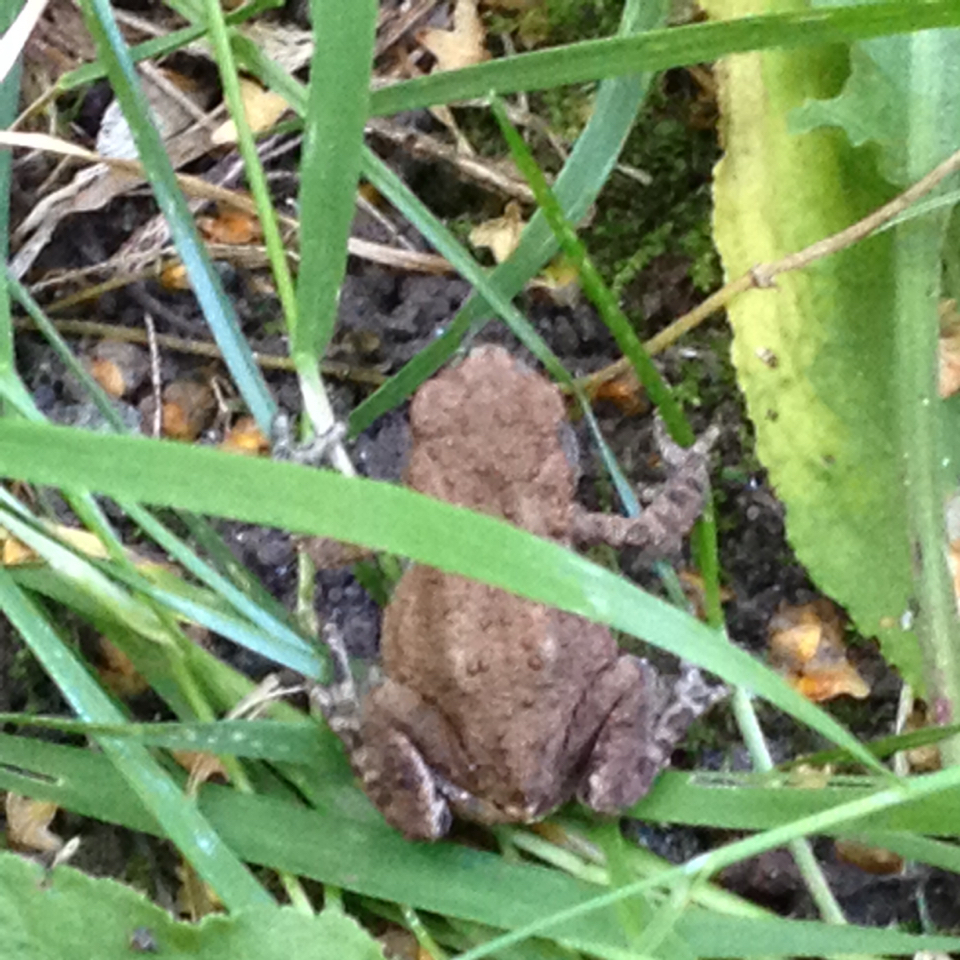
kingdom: Animalia
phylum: Chordata
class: Amphibia
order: Anura
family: Bufonidae
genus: Bufo
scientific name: Bufo bufo
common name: Common toad
